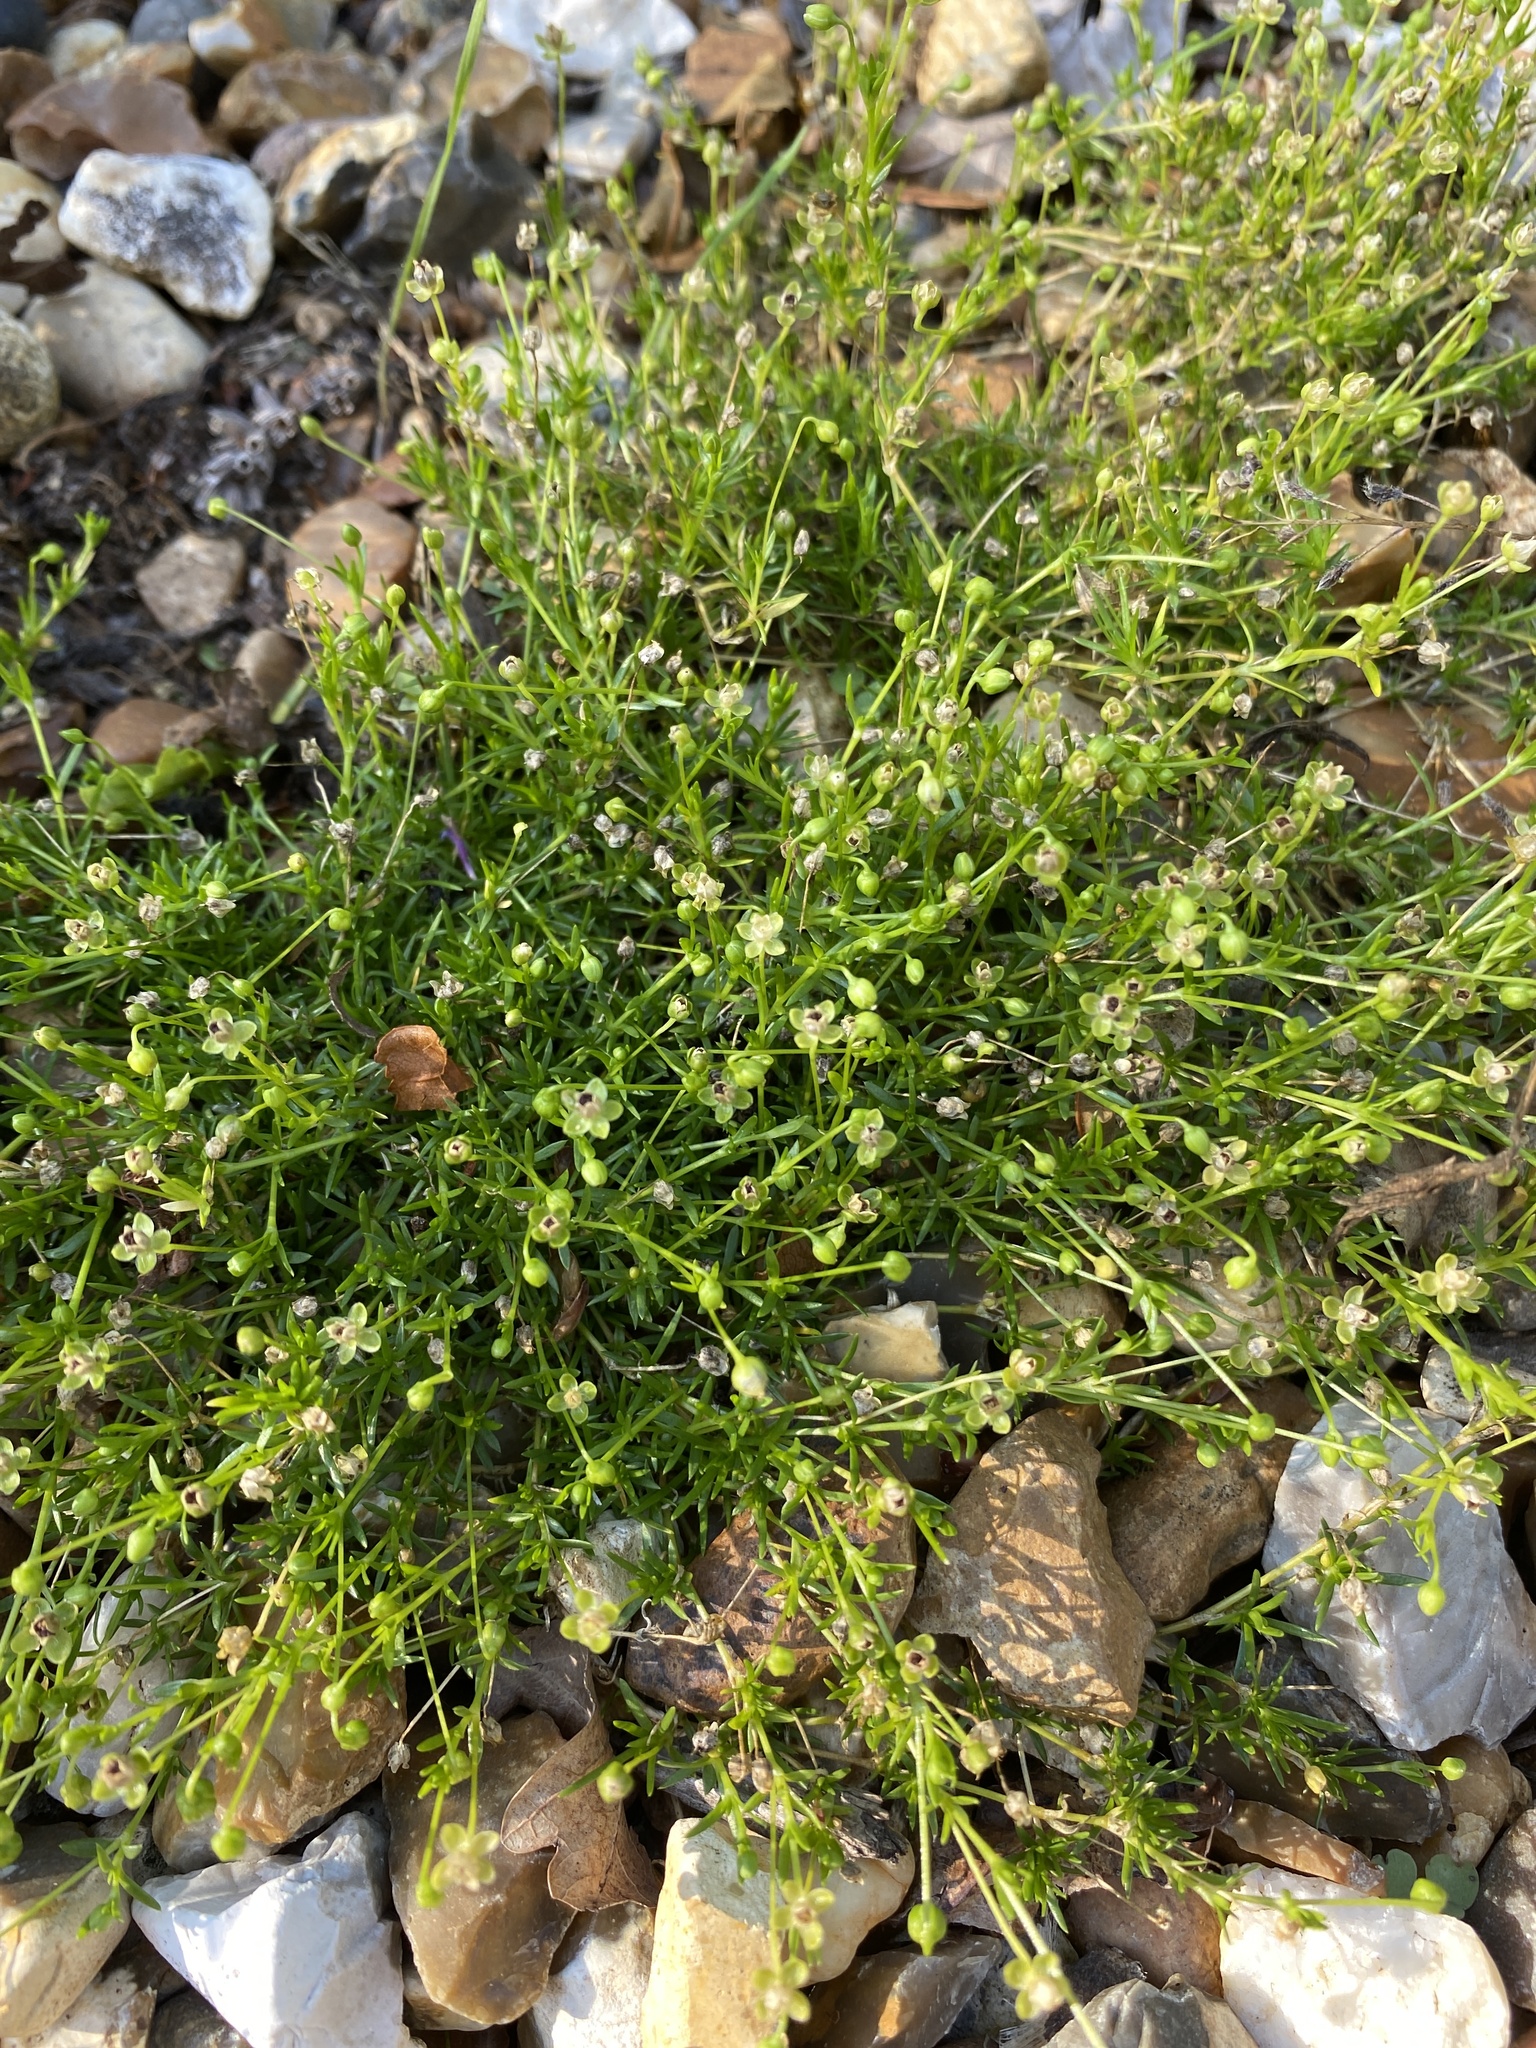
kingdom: Plantae
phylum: Tracheophyta
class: Magnoliopsida
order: Caryophyllales
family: Caryophyllaceae
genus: Sagina
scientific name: Sagina procumbens
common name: Procumbent pearlwort
